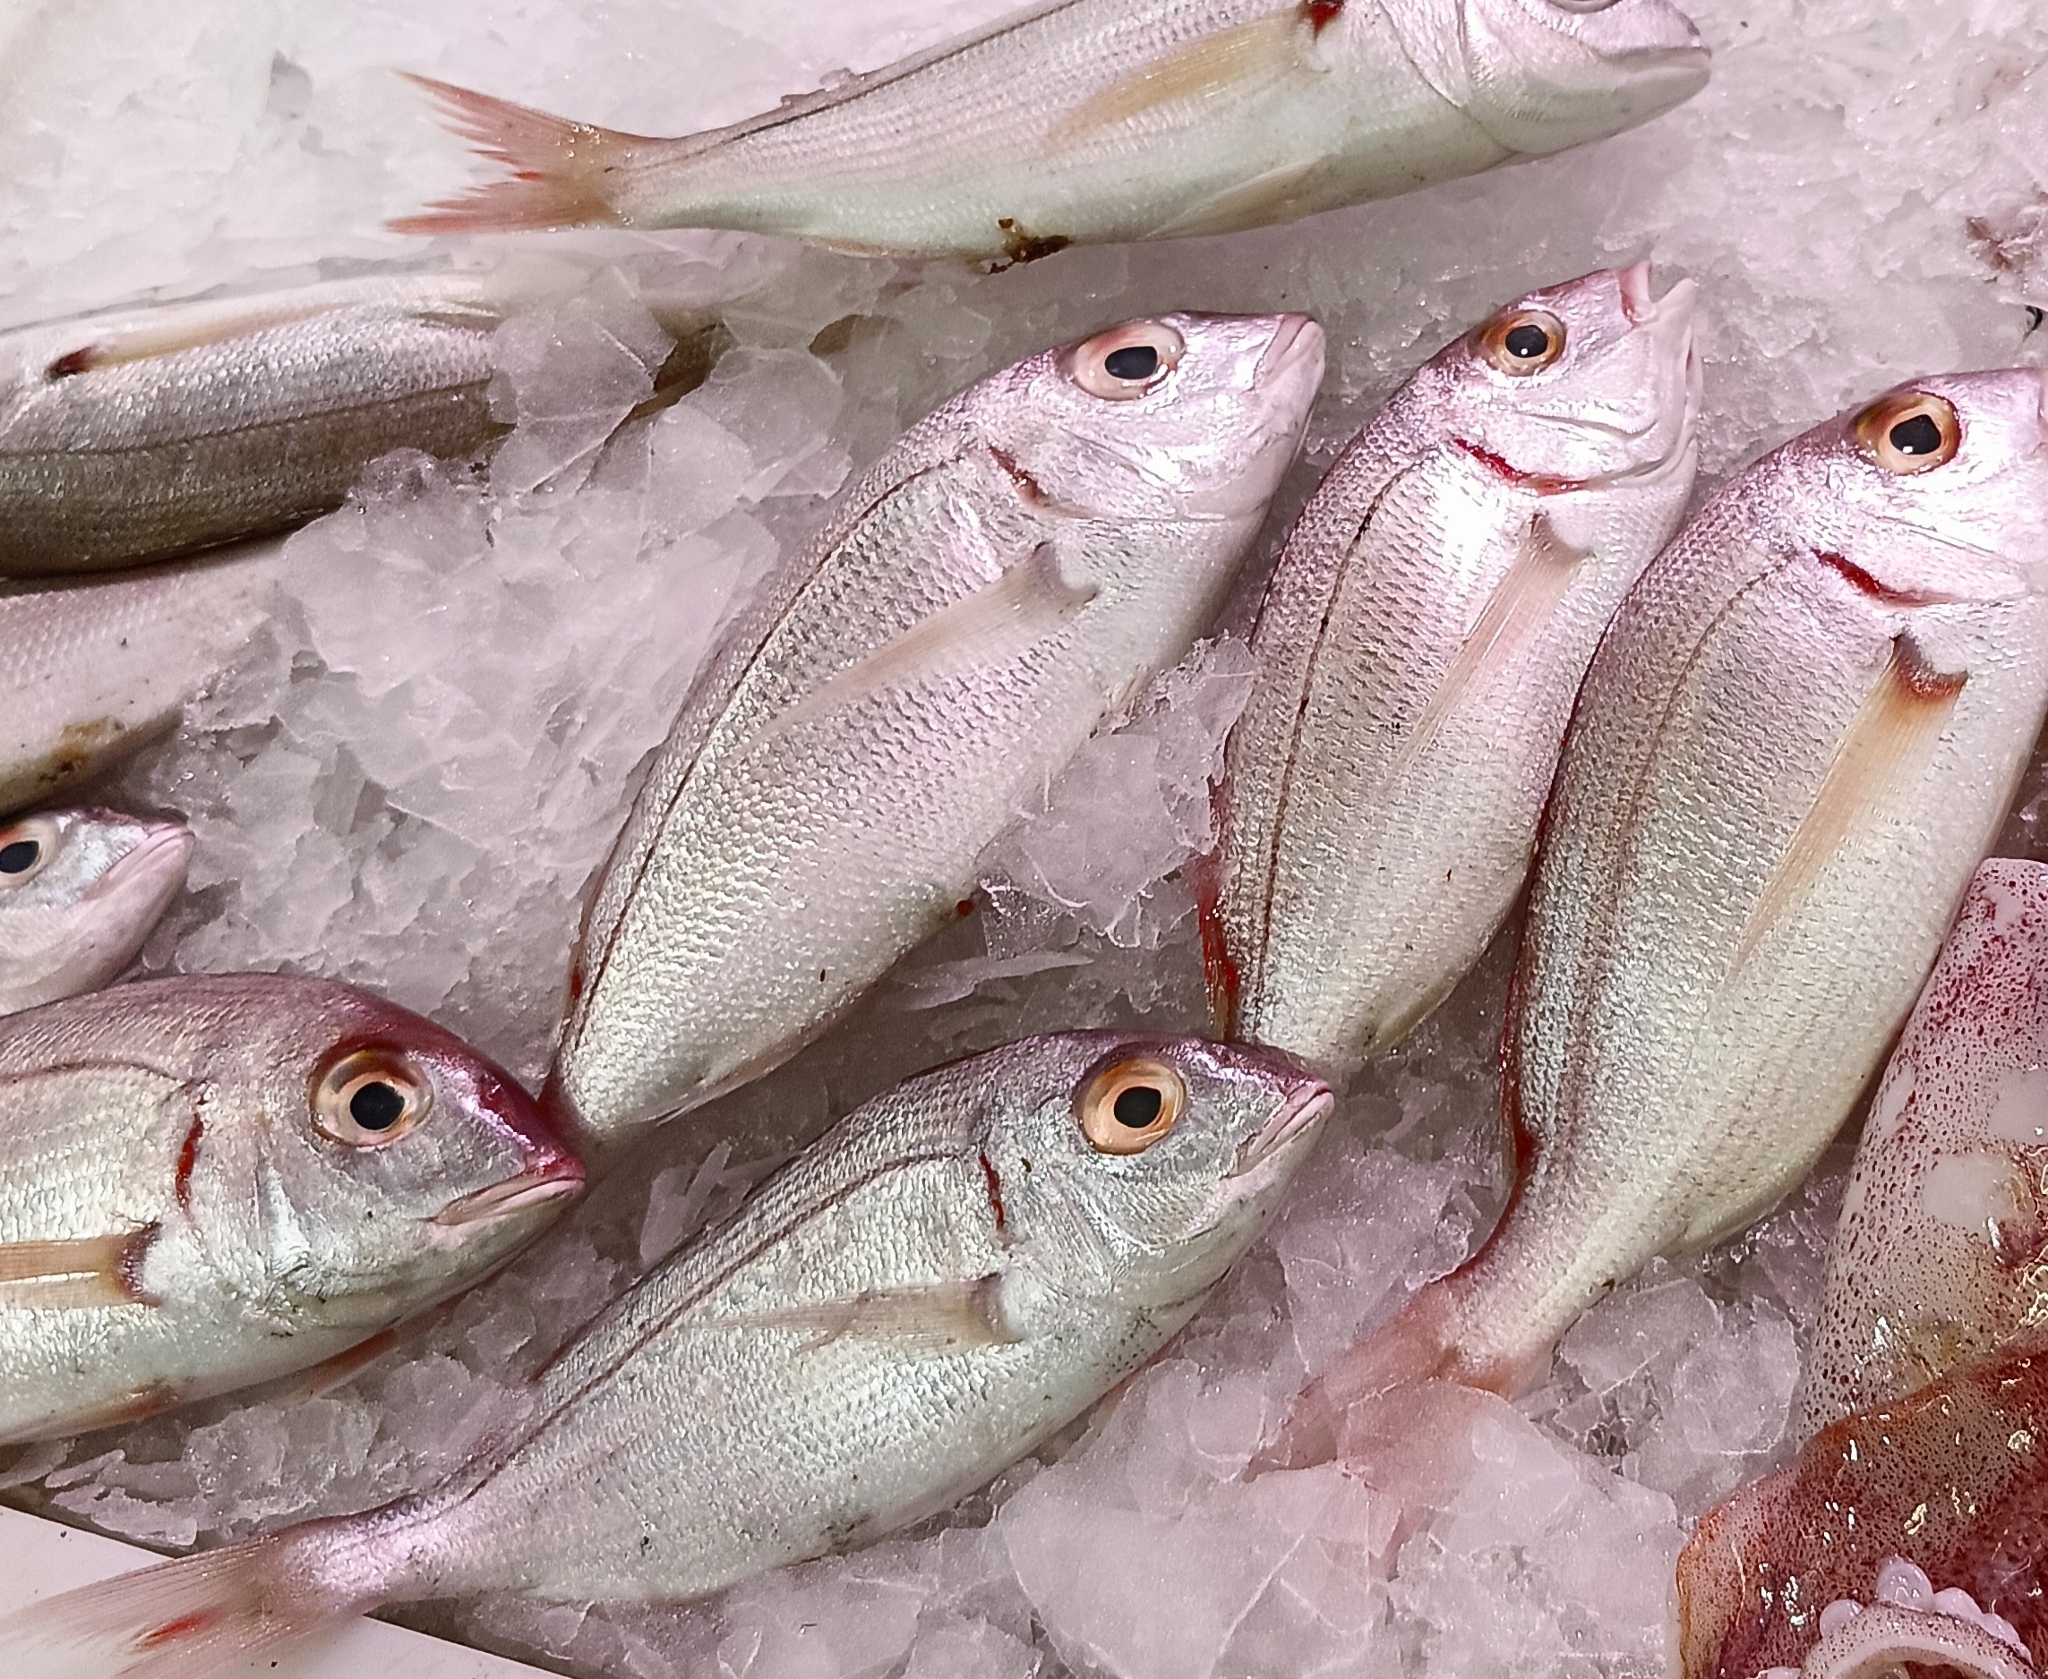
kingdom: Animalia
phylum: Chordata
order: Perciformes
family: Sparidae
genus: Pagellus
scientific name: Pagellus bellottii
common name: Red pandora
